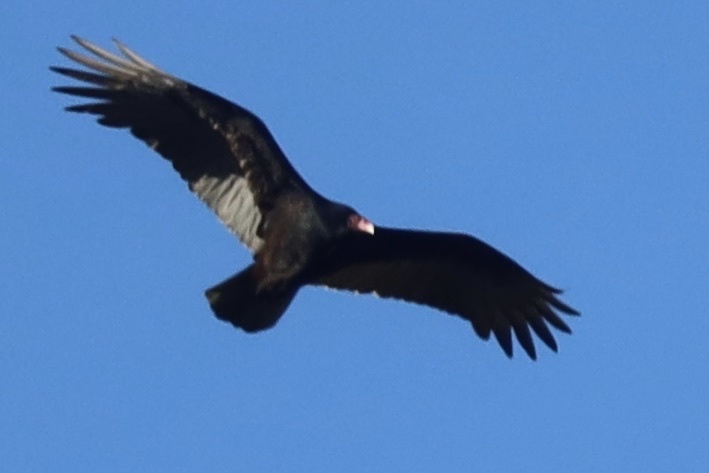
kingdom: Animalia
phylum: Chordata
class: Aves
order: Accipitriformes
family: Cathartidae
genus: Cathartes
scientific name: Cathartes aura
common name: Turkey vulture
